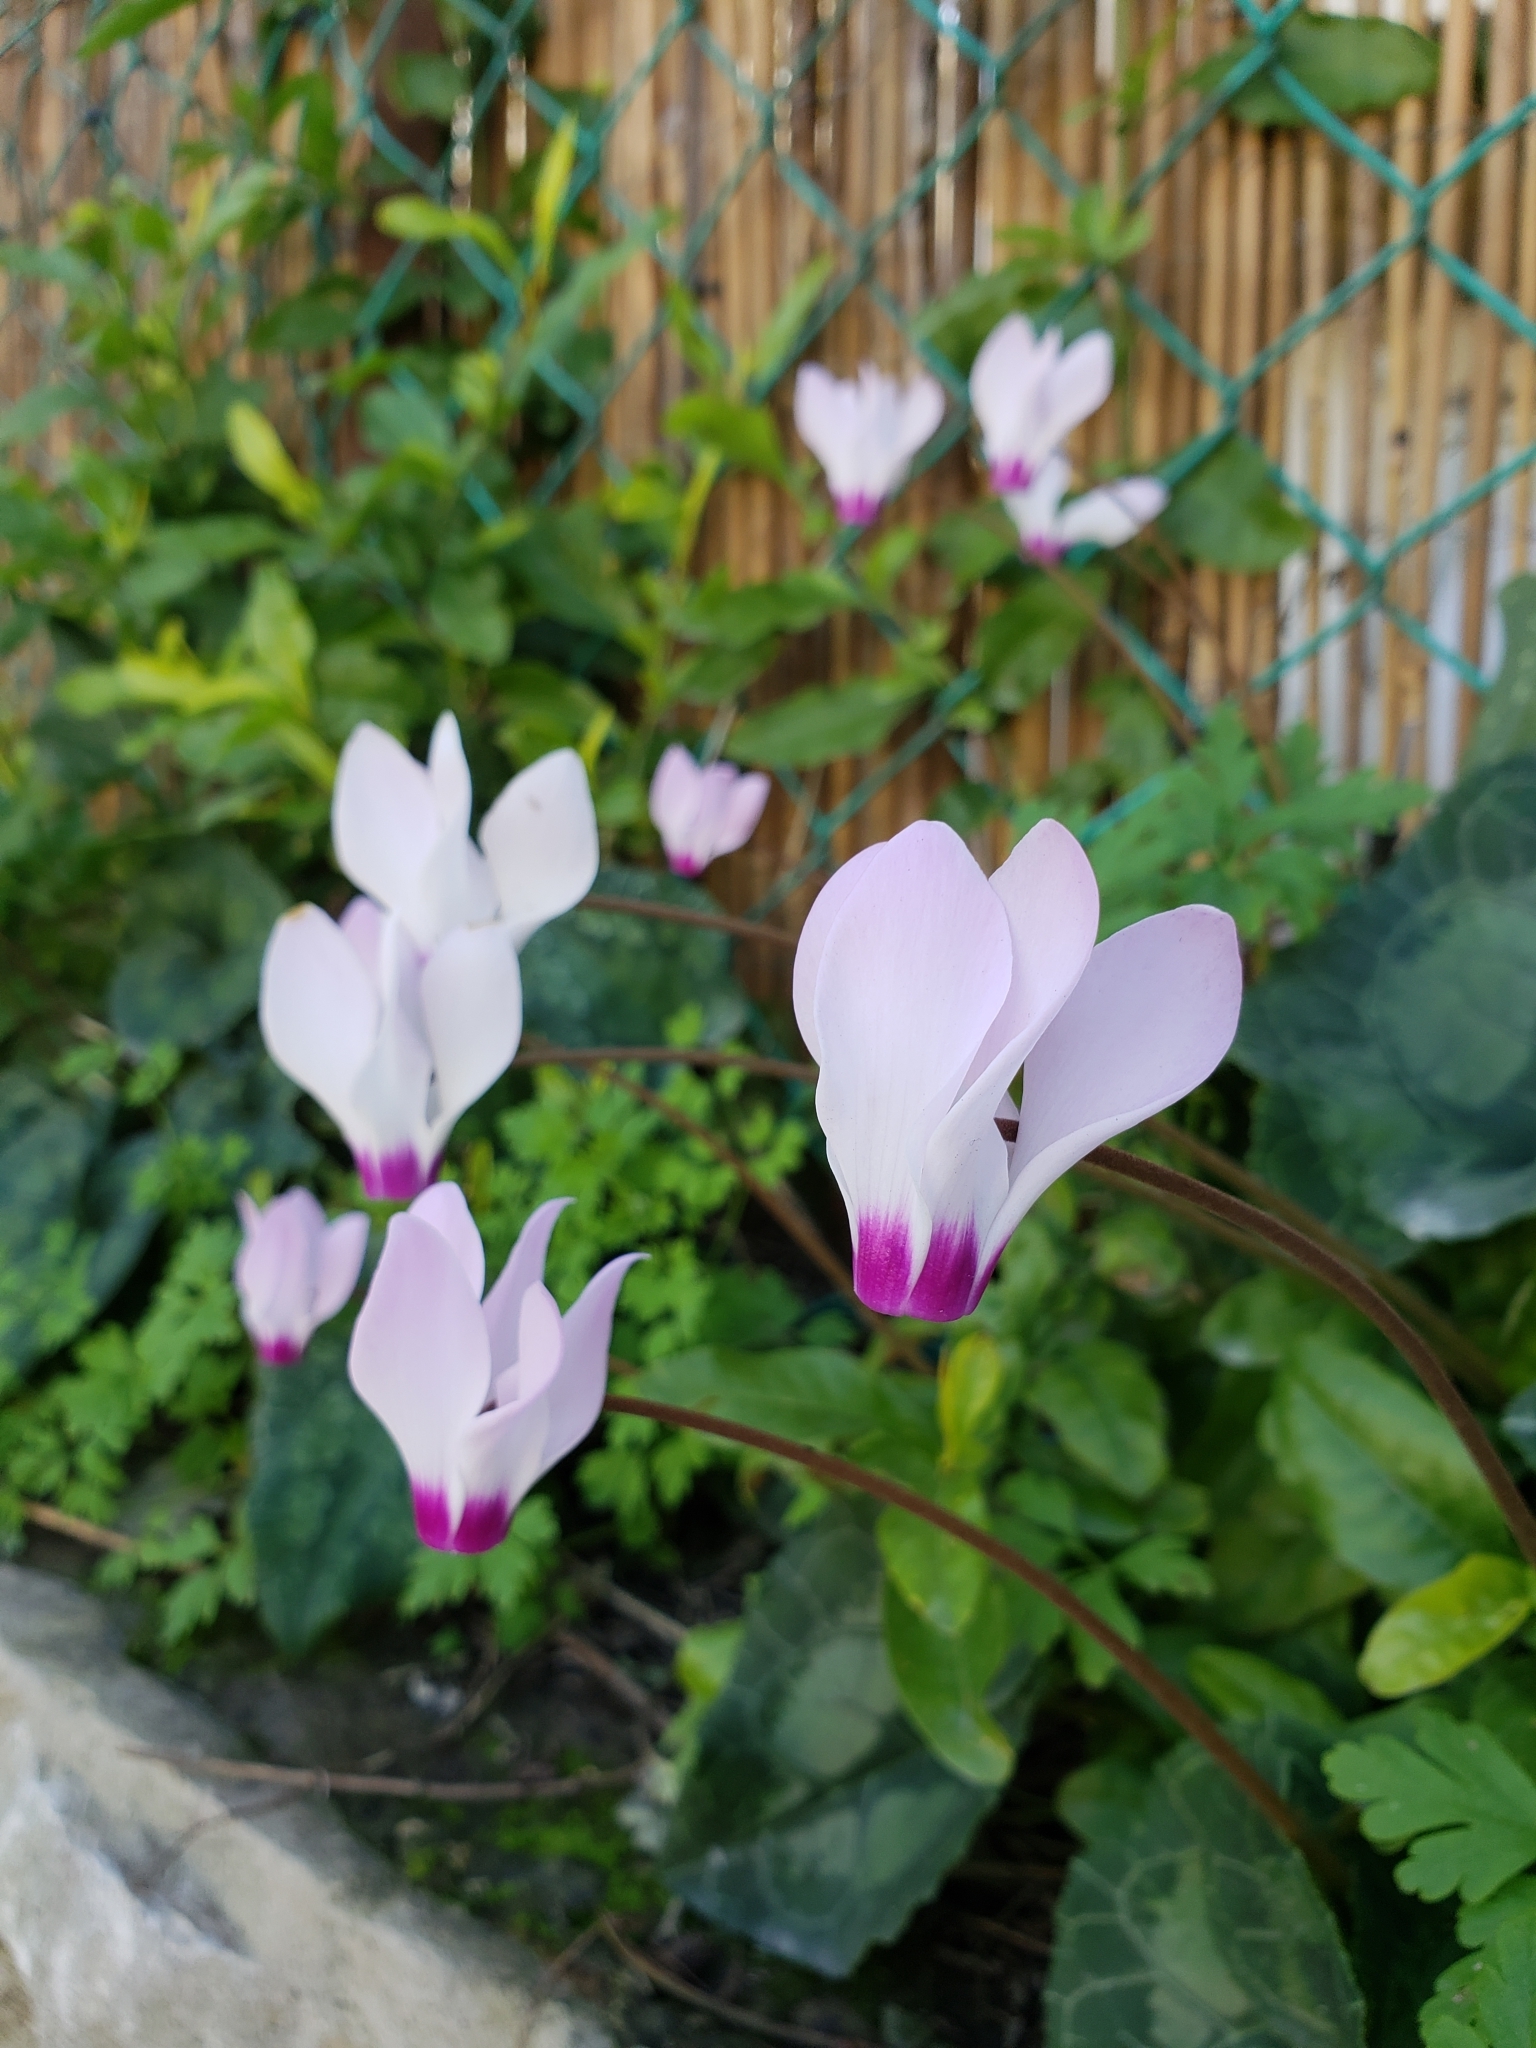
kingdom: Plantae
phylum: Tracheophyta
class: Magnoliopsida
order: Ericales
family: Primulaceae
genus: Cyclamen
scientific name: Cyclamen persicum
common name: Florist's cyclamen
